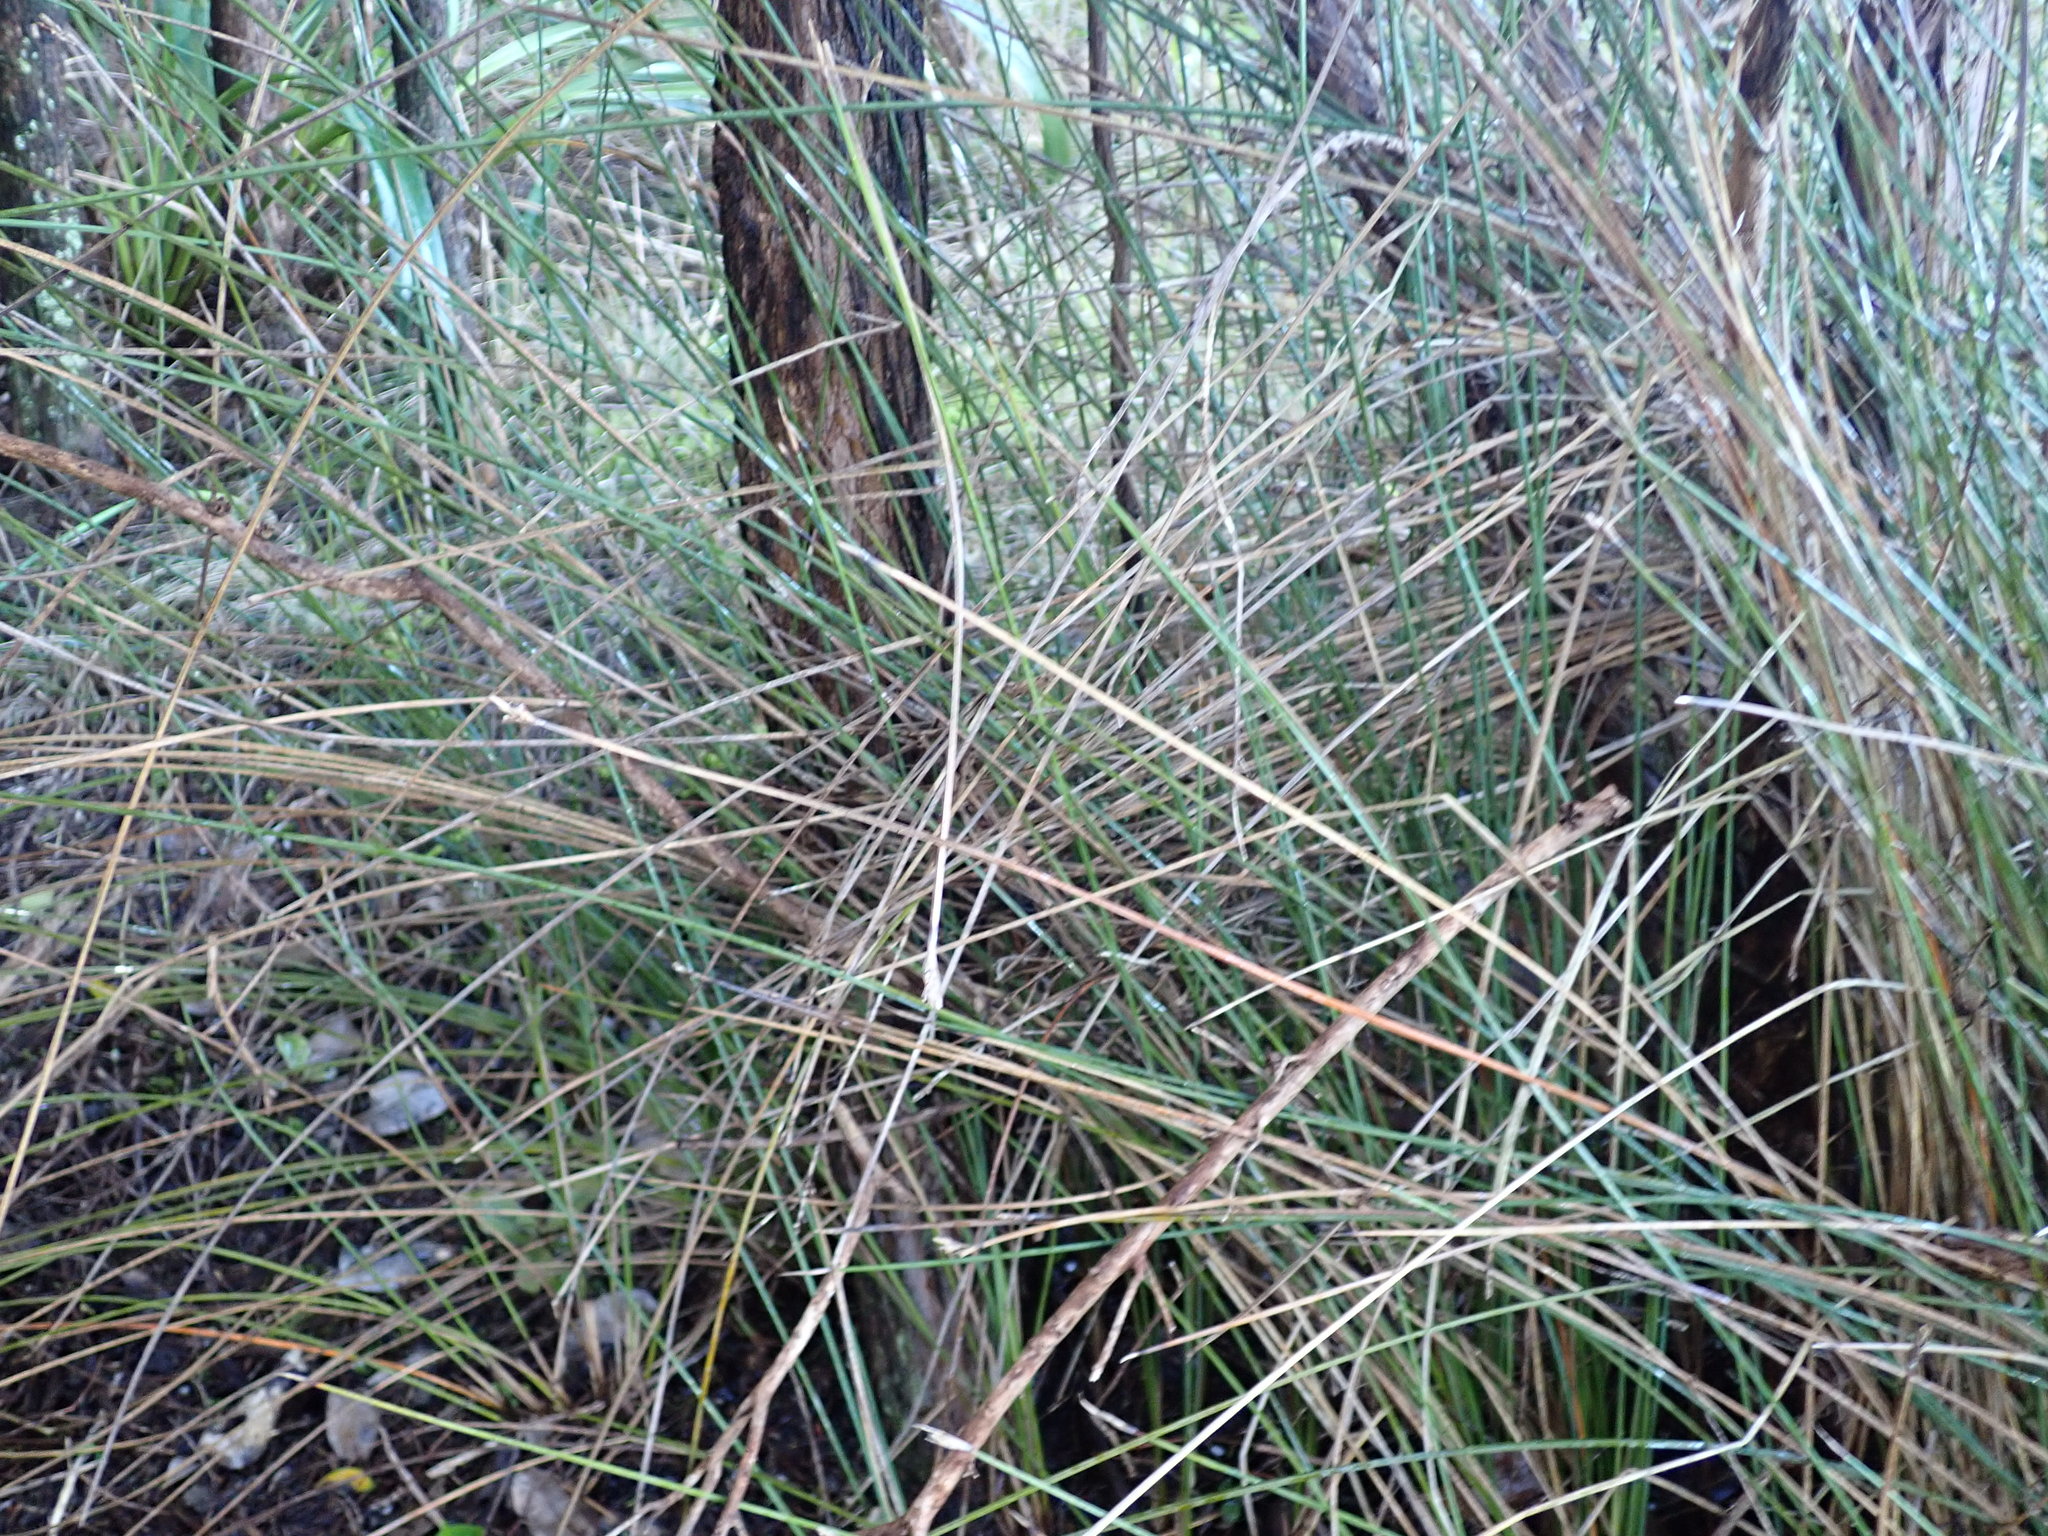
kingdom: Plantae
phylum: Tracheophyta
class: Liliopsida
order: Poales
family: Cyperaceae
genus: Lepidosperma
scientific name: Lepidosperma australe
